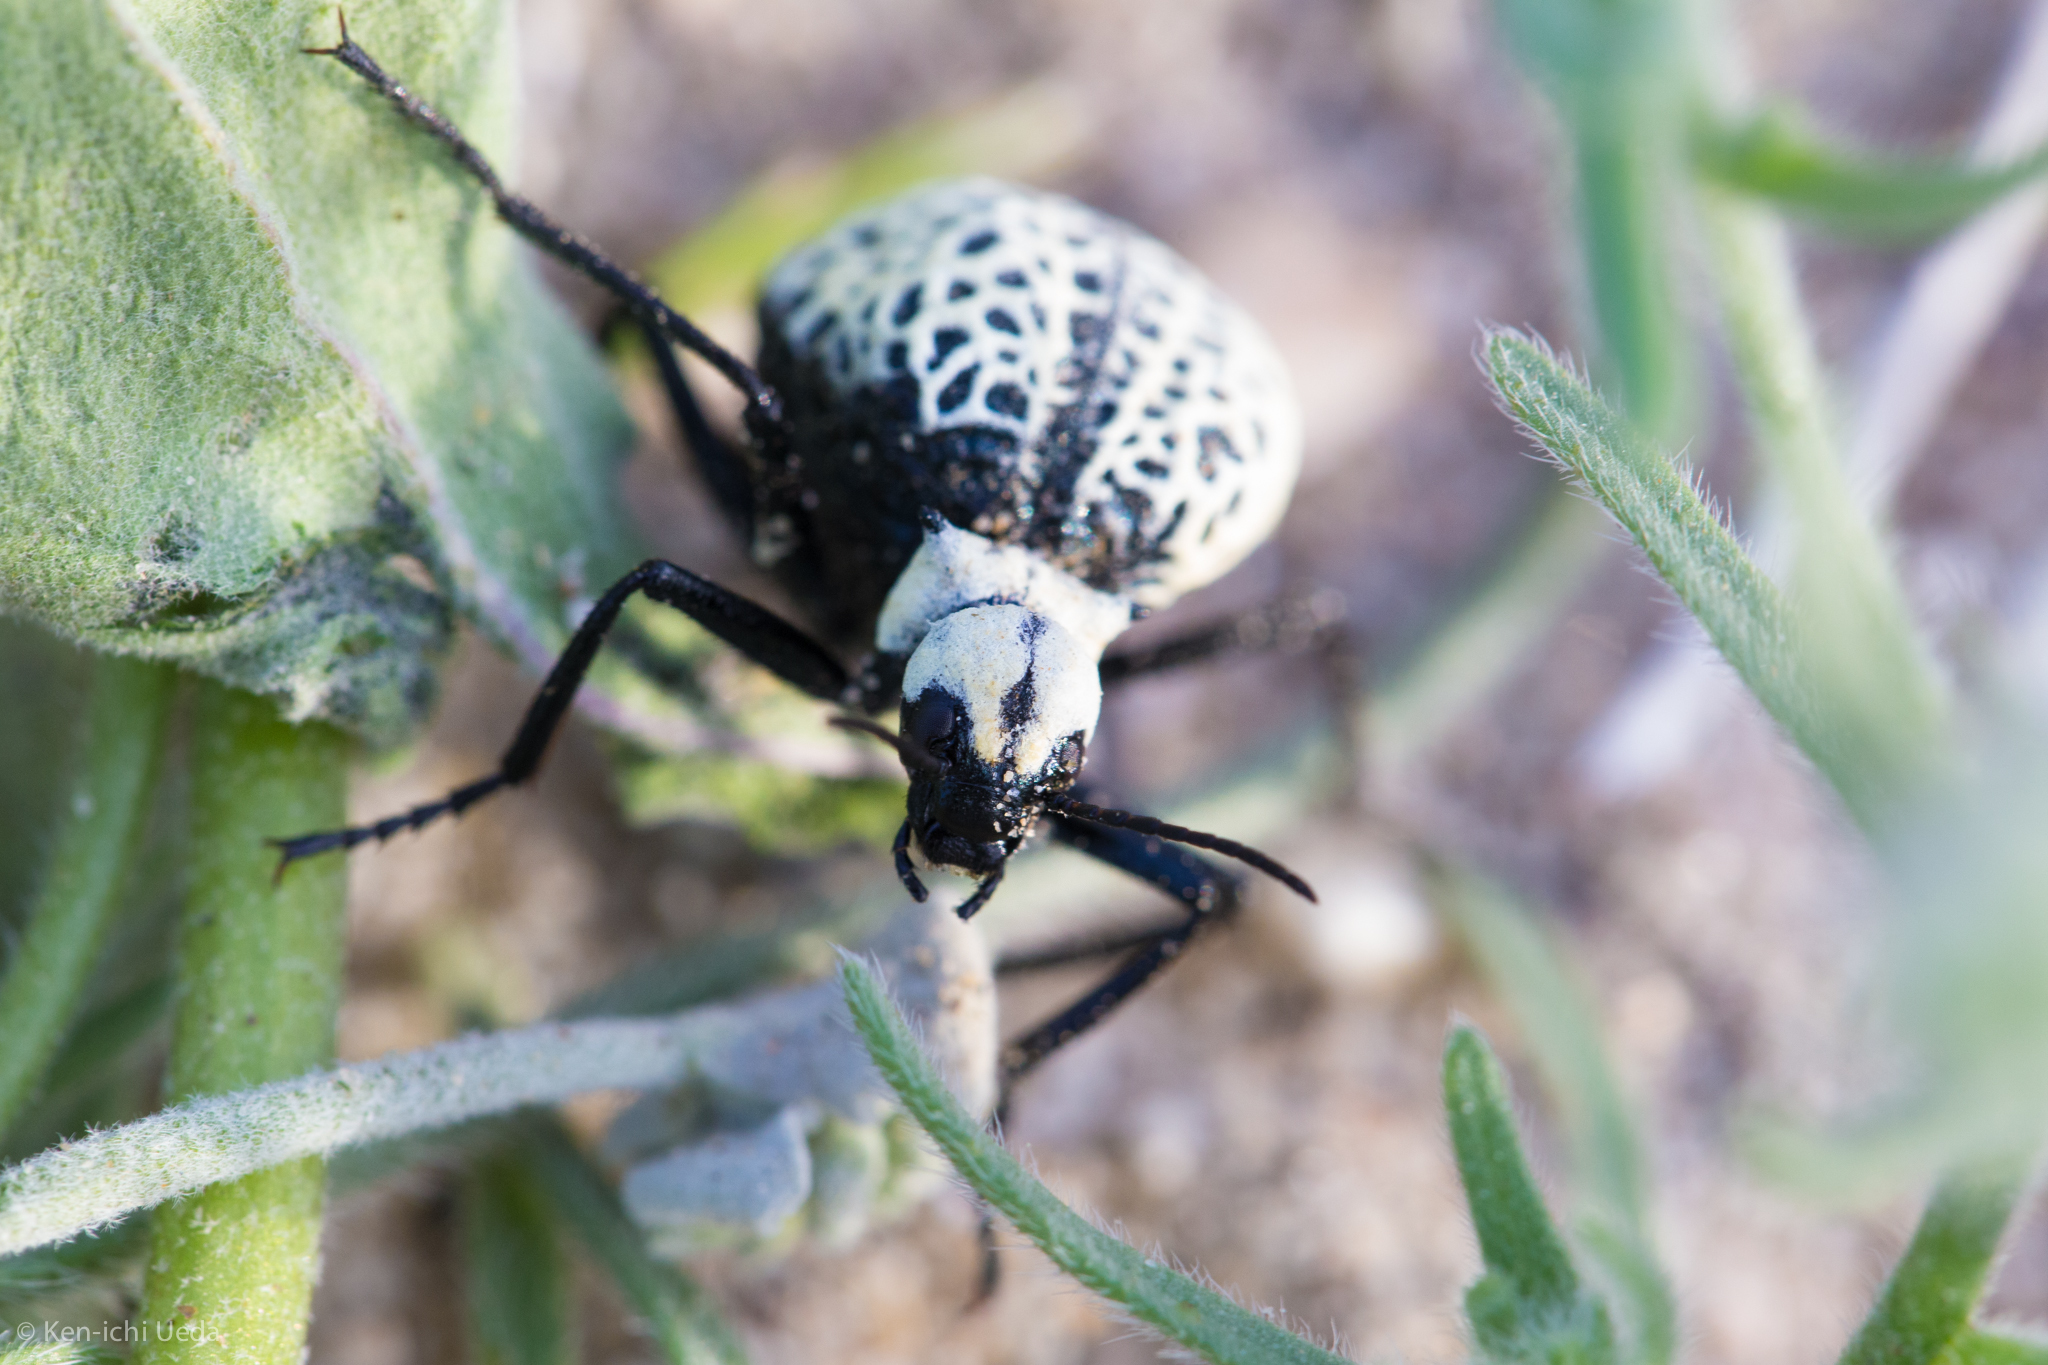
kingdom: Animalia
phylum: Arthropoda
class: Insecta
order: Coleoptera
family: Meloidae
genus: Cysteodemus
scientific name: Cysteodemus armatus
